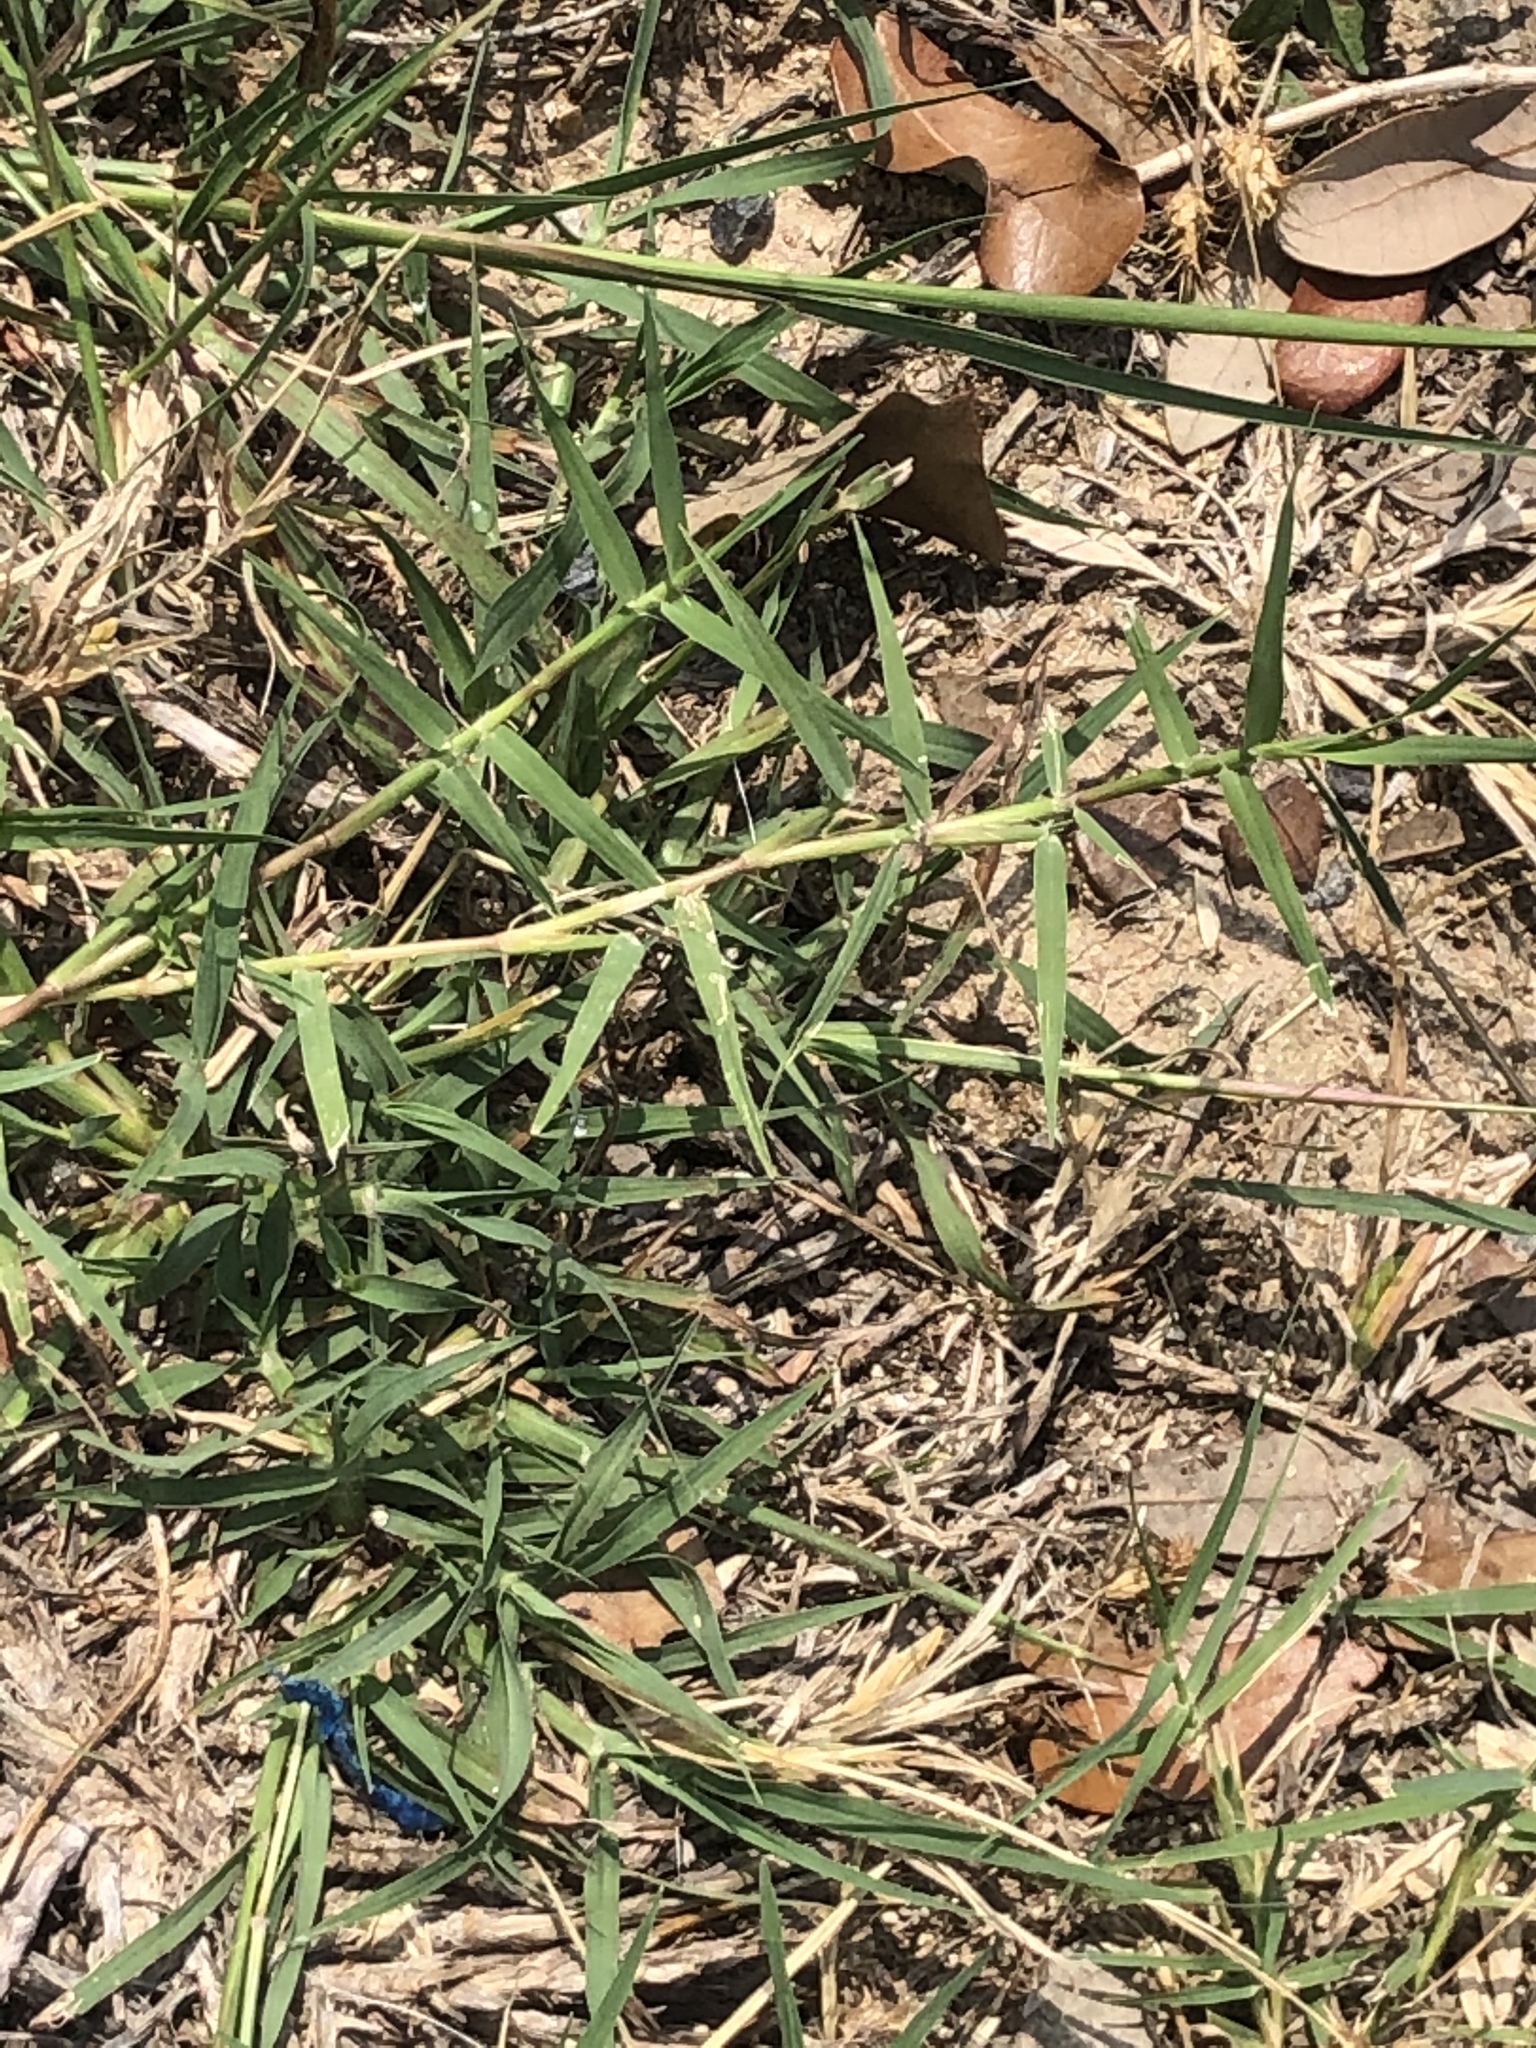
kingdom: Plantae
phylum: Tracheophyta
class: Liliopsida
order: Poales
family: Poaceae
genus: Cynodon
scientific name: Cynodon dactylon
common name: Bermuda grass
